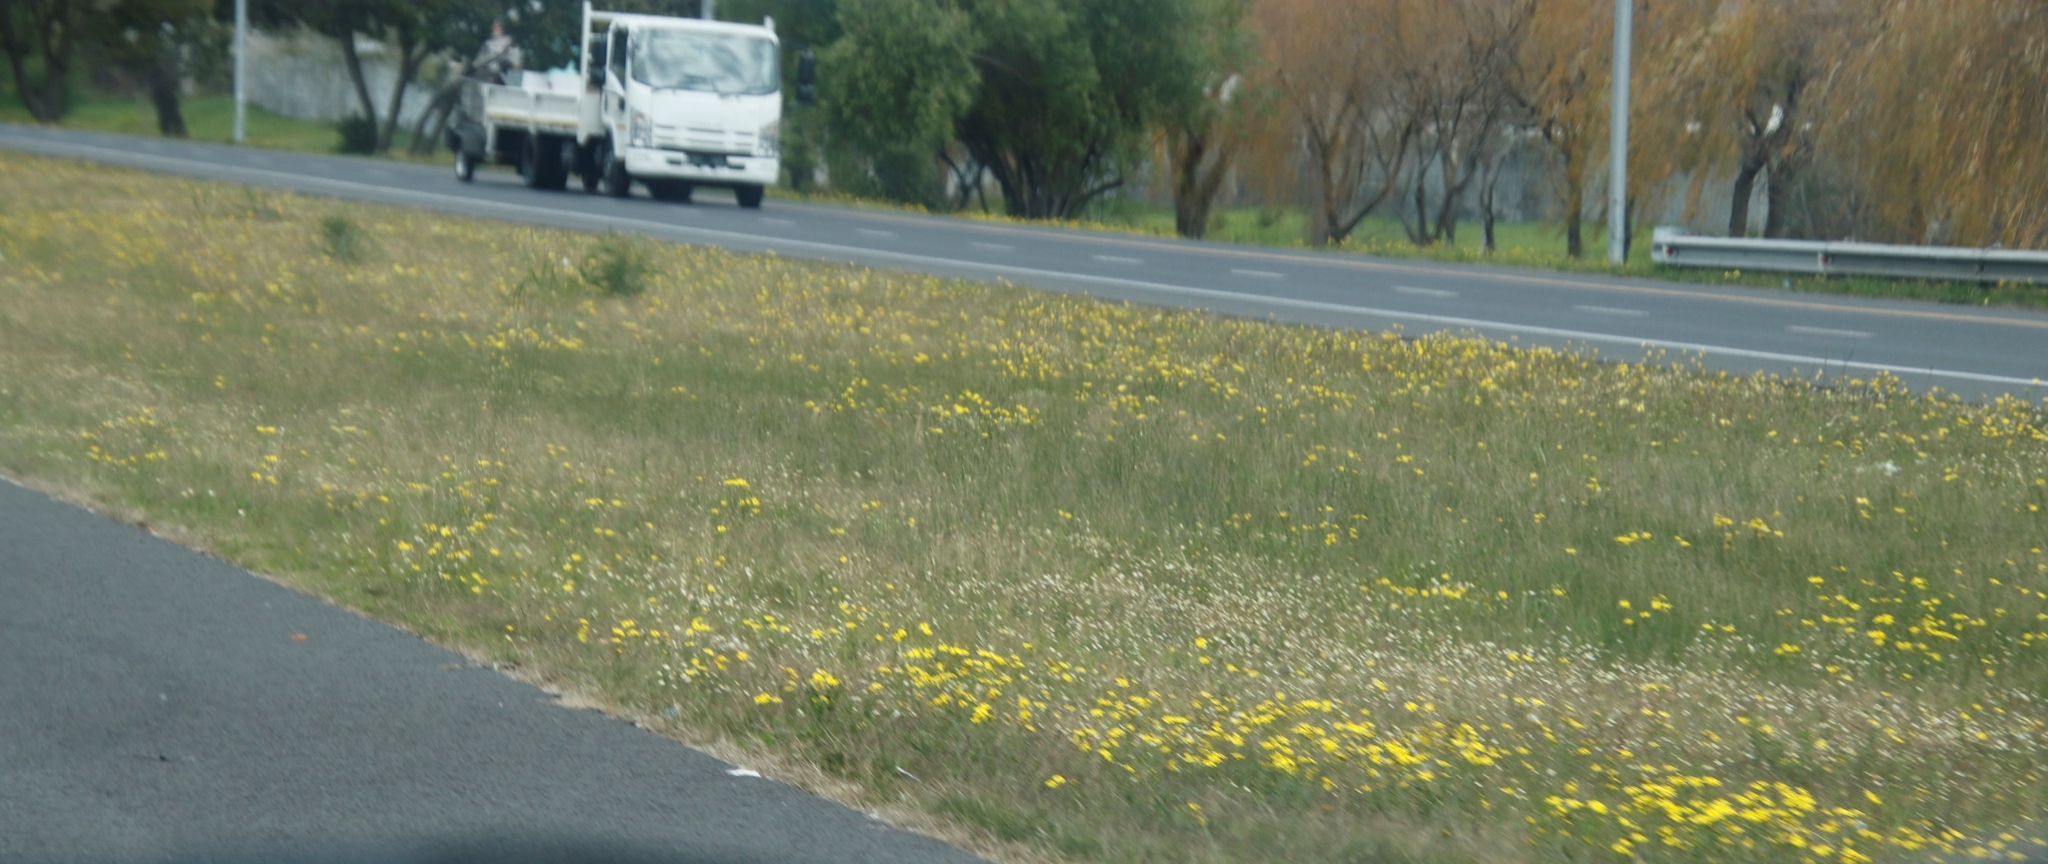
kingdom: Plantae
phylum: Tracheophyta
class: Magnoliopsida
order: Asterales
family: Asteraceae
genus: Cotula
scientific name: Cotula turbinata
